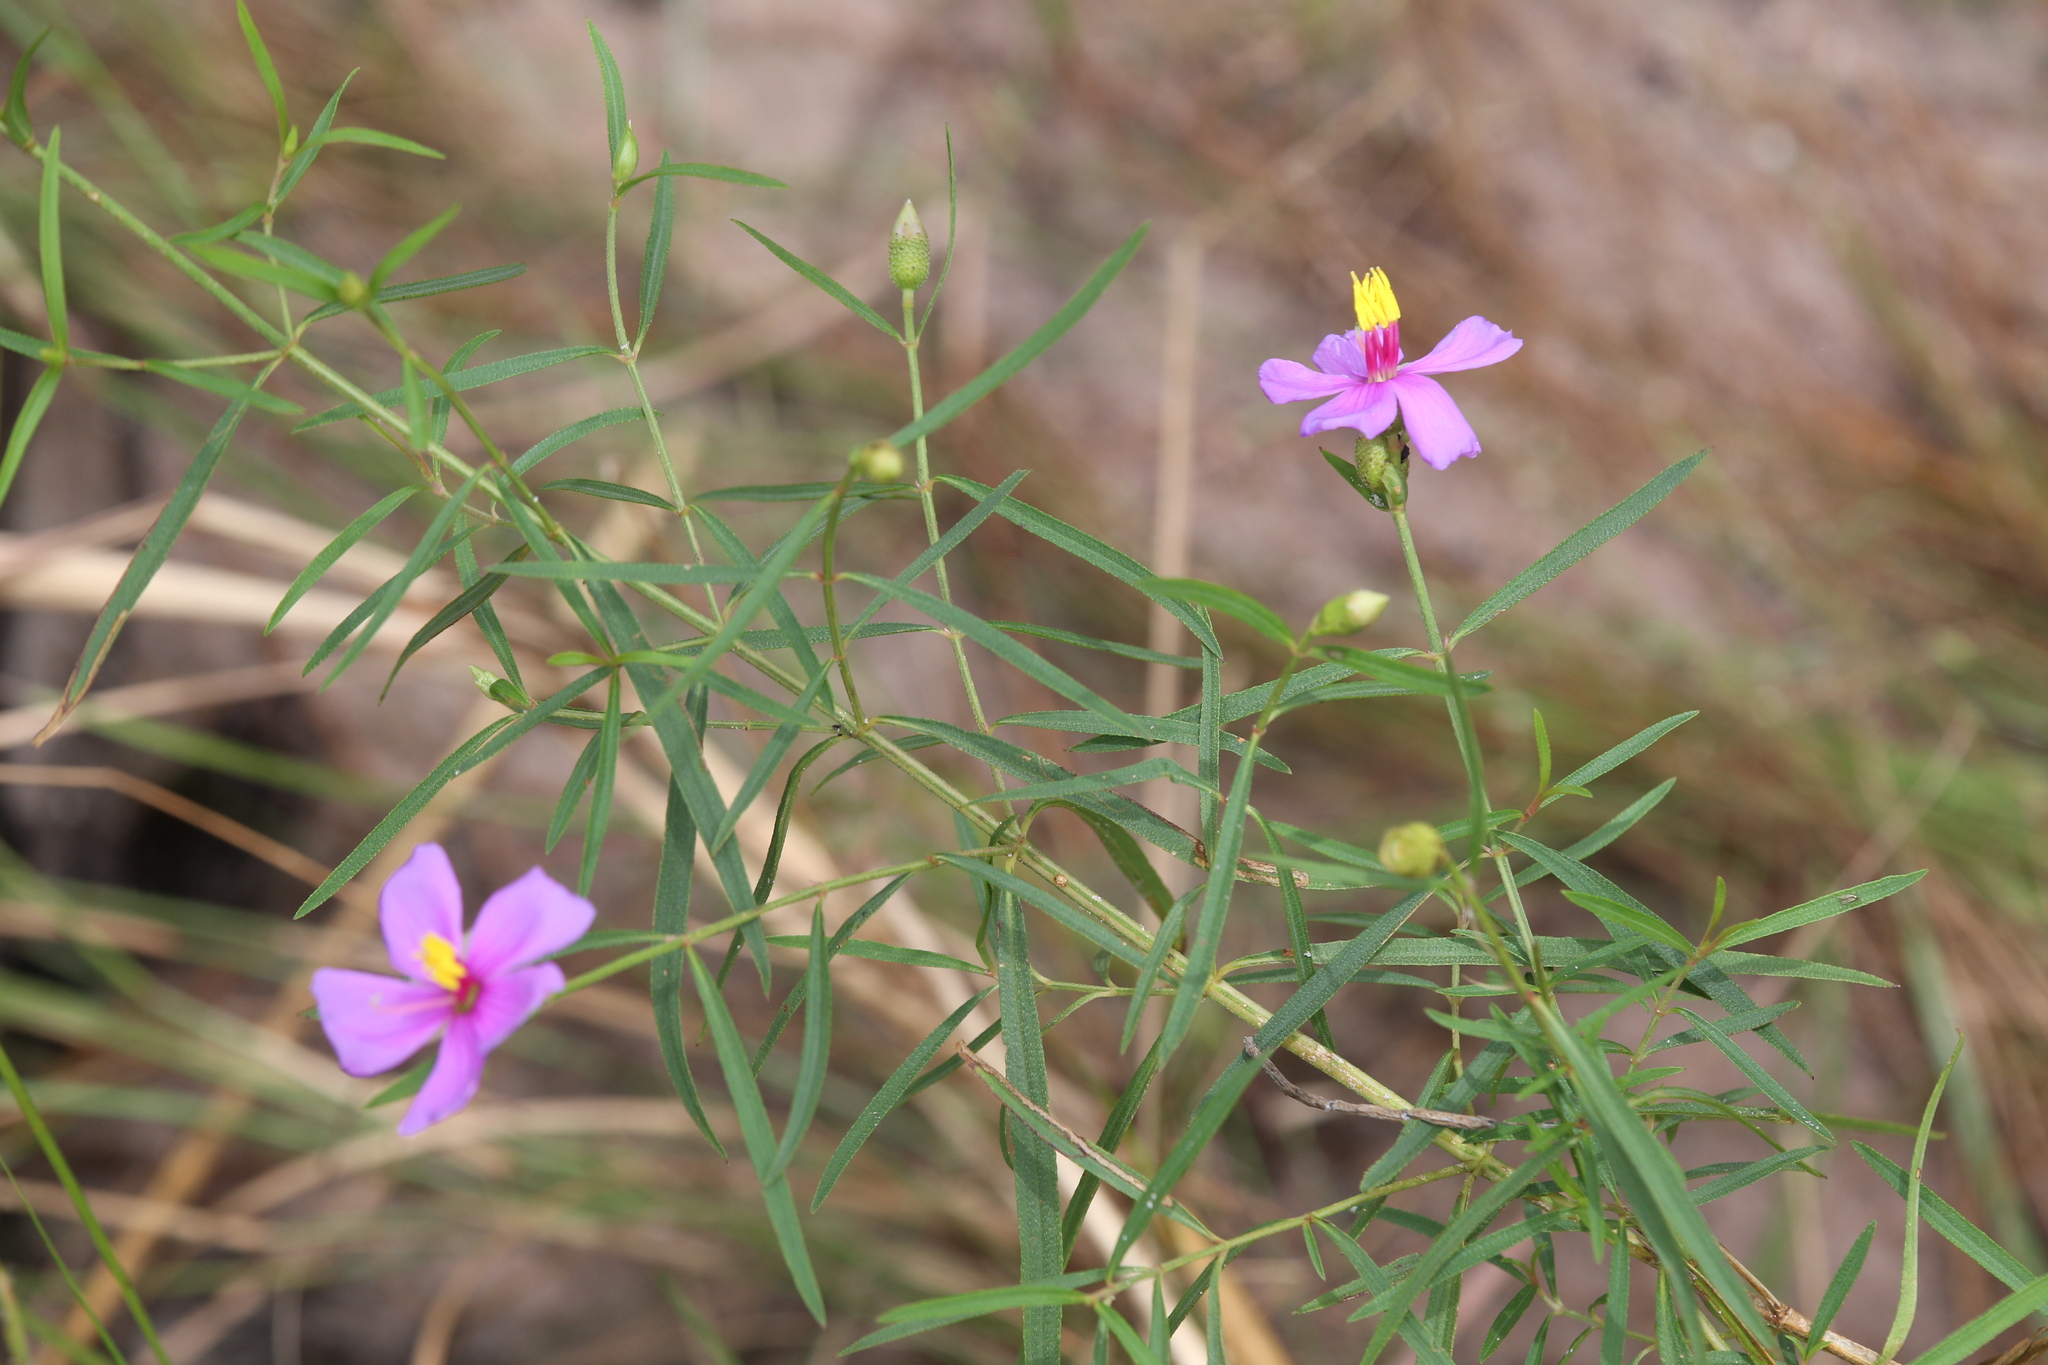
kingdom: Plantae
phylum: Tracheophyta
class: Magnoliopsida
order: Myrtales
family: Melastomataceae
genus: Osbeckia
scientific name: Osbeckia australiana
